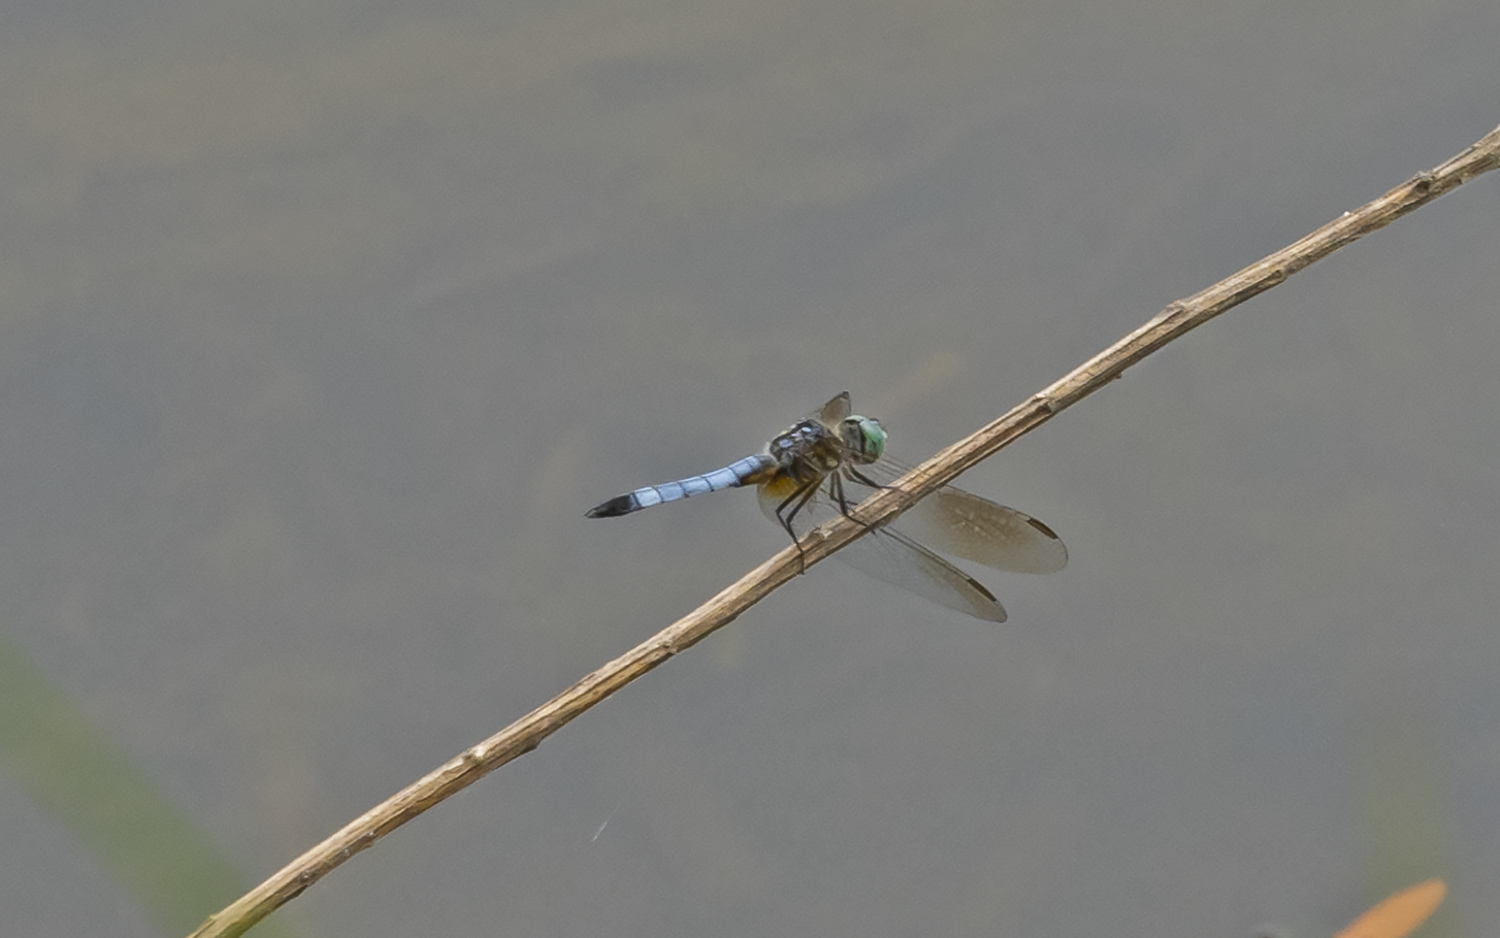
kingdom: Animalia
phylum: Arthropoda
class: Insecta
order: Odonata
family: Libellulidae
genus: Pachydiplax
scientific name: Pachydiplax longipennis
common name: Blue dasher
